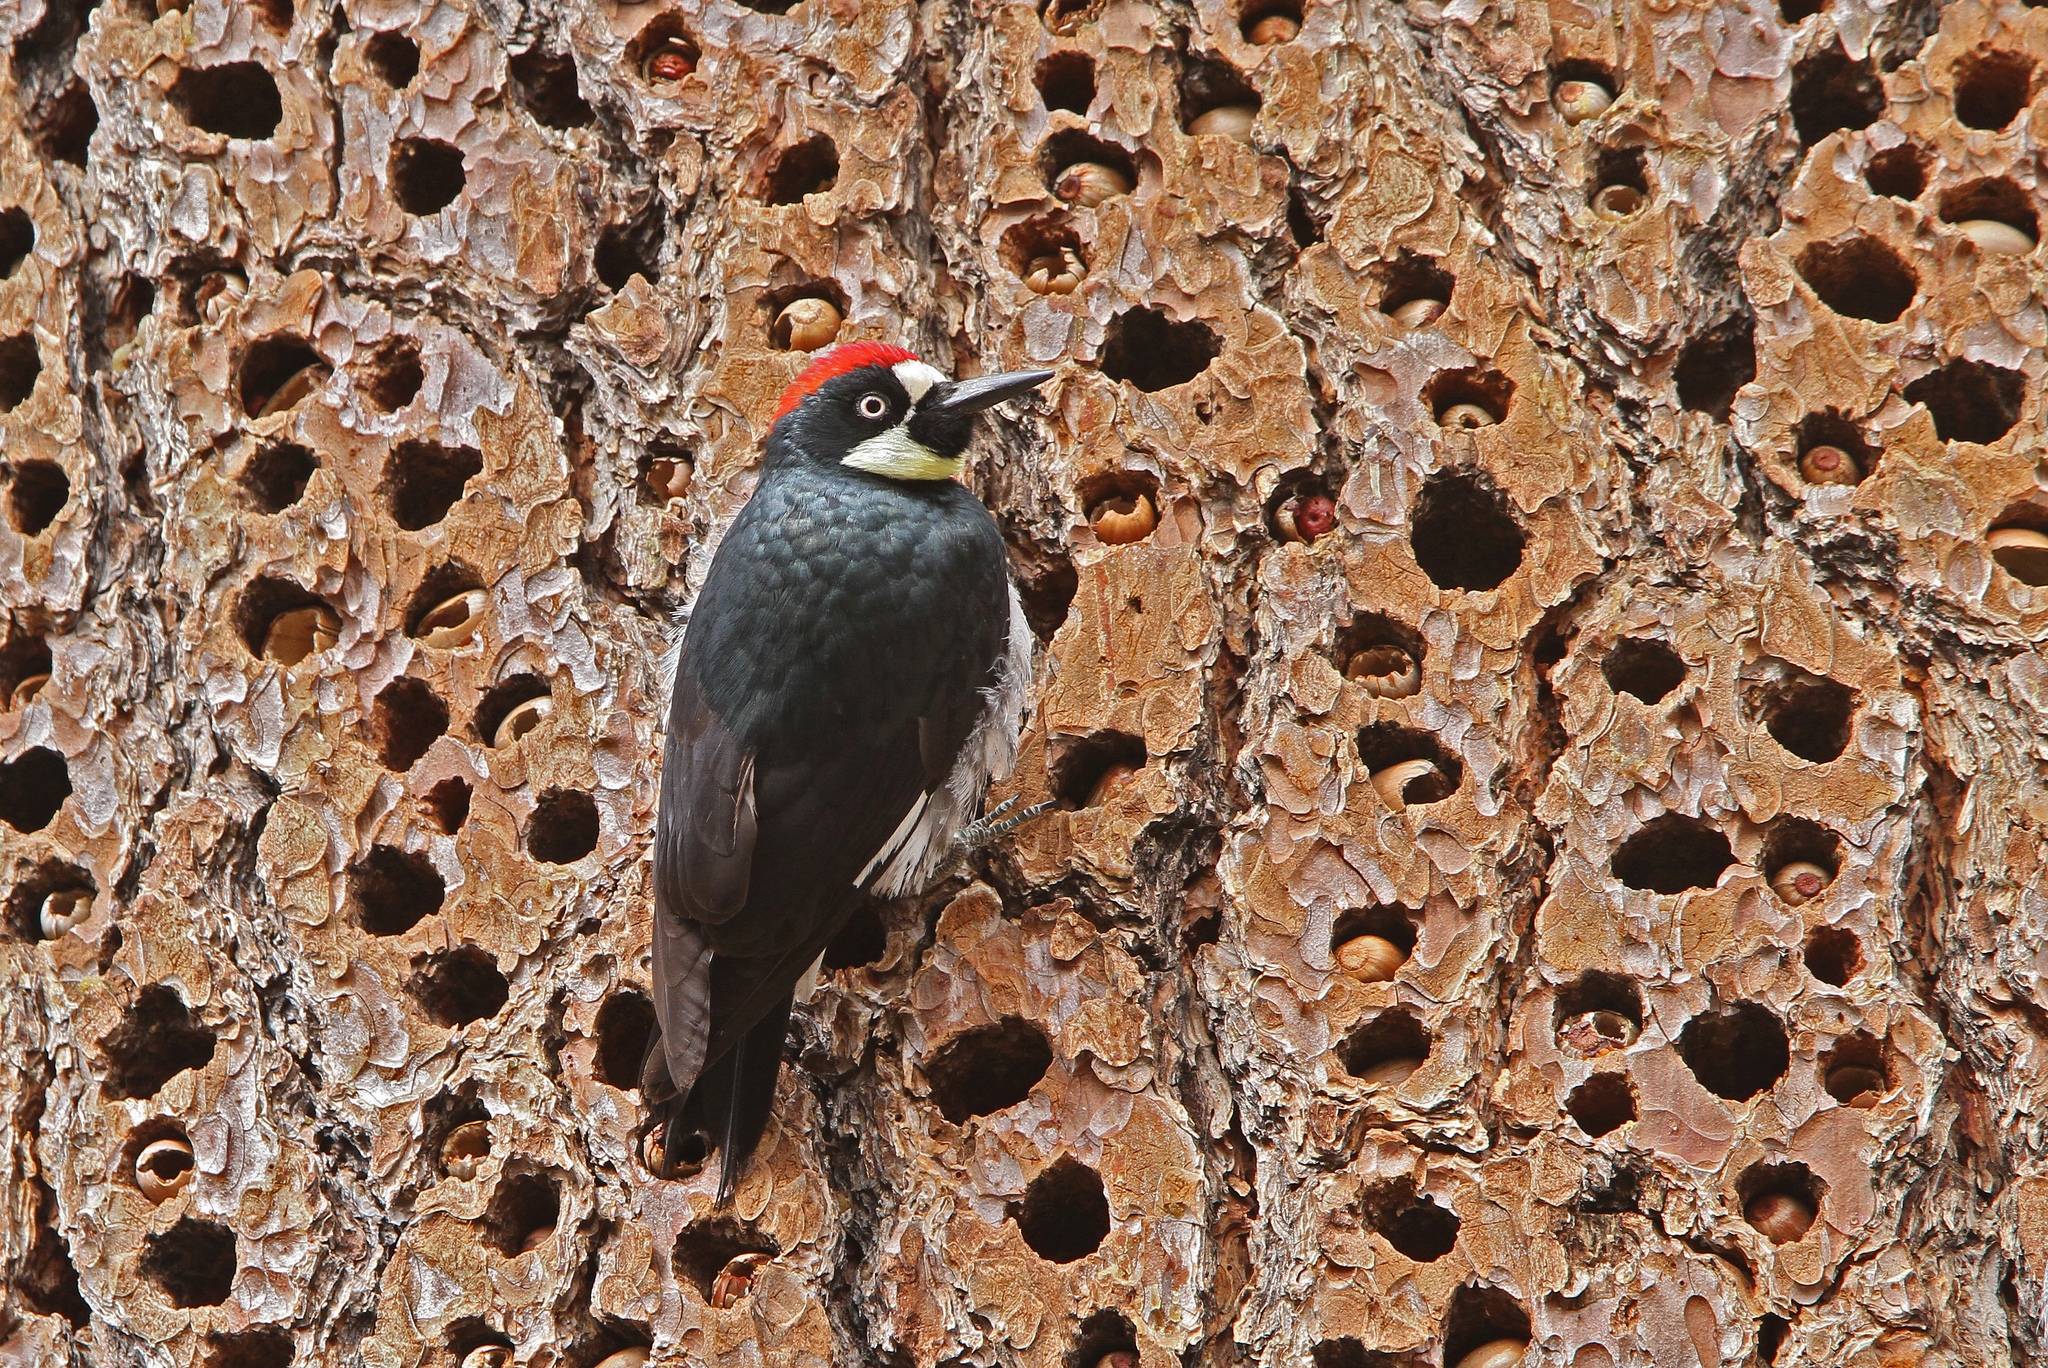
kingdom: Animalia
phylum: Chordata
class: Aves
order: Piciformes
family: Picidae
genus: Melanerpes
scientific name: Melanerpes formicivorus
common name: Acorn woodpecker
